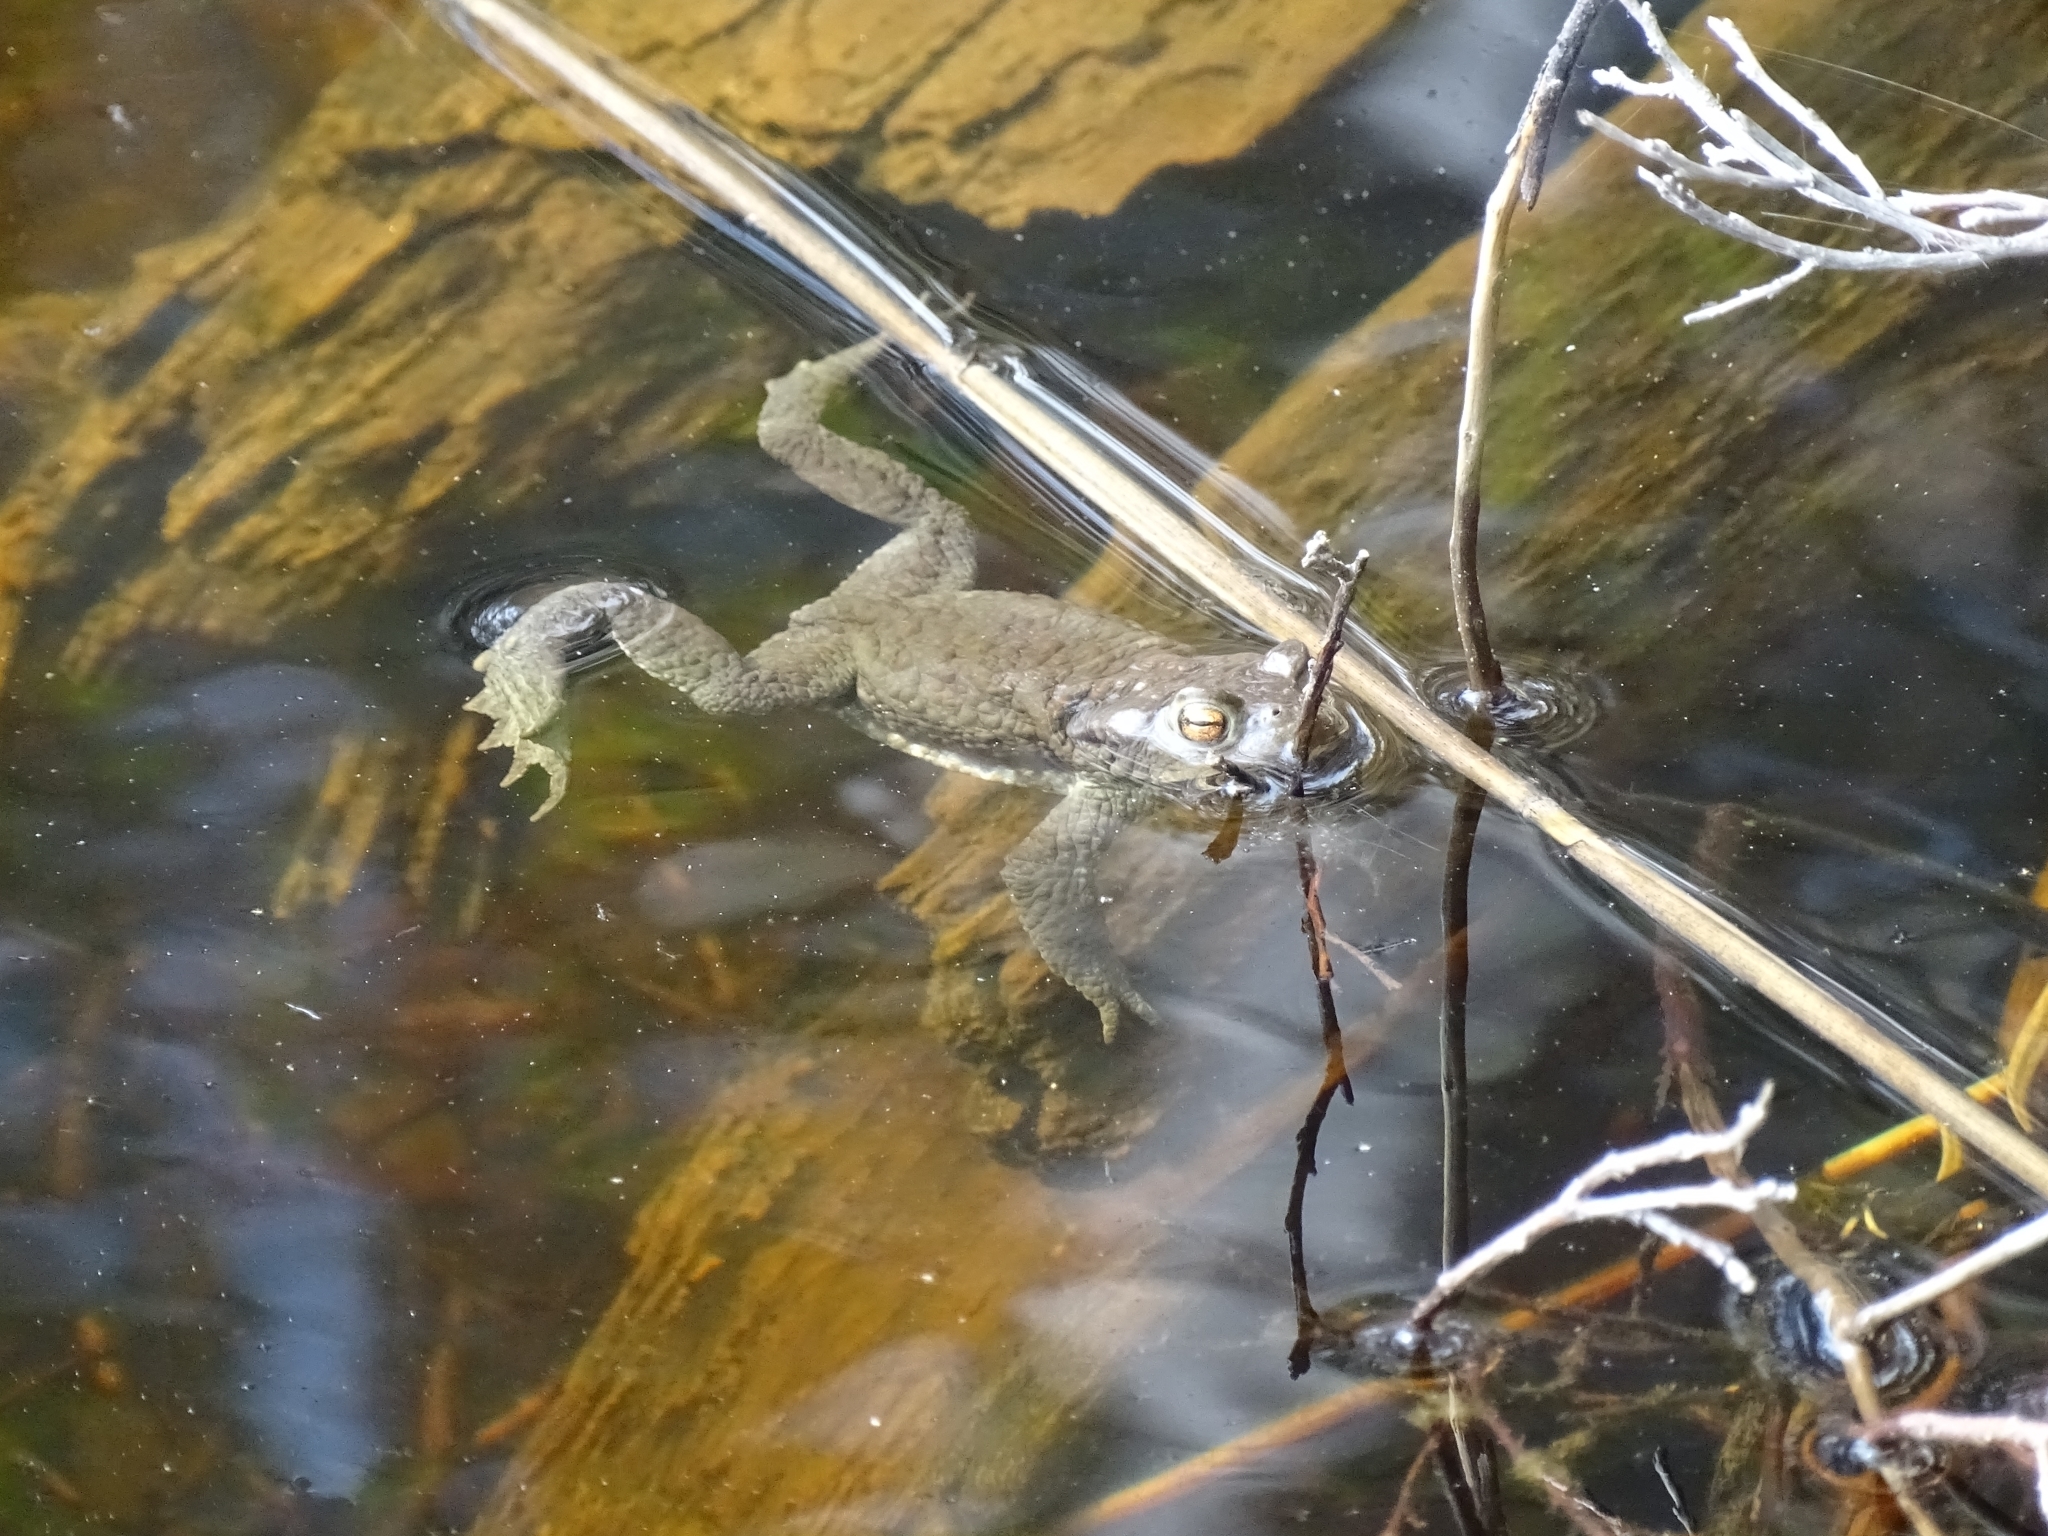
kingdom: Animalia
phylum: Chordata
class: Amphibia
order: Anura
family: Bufonidae
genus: Bufo
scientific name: Bufo bufo
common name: Common toad
